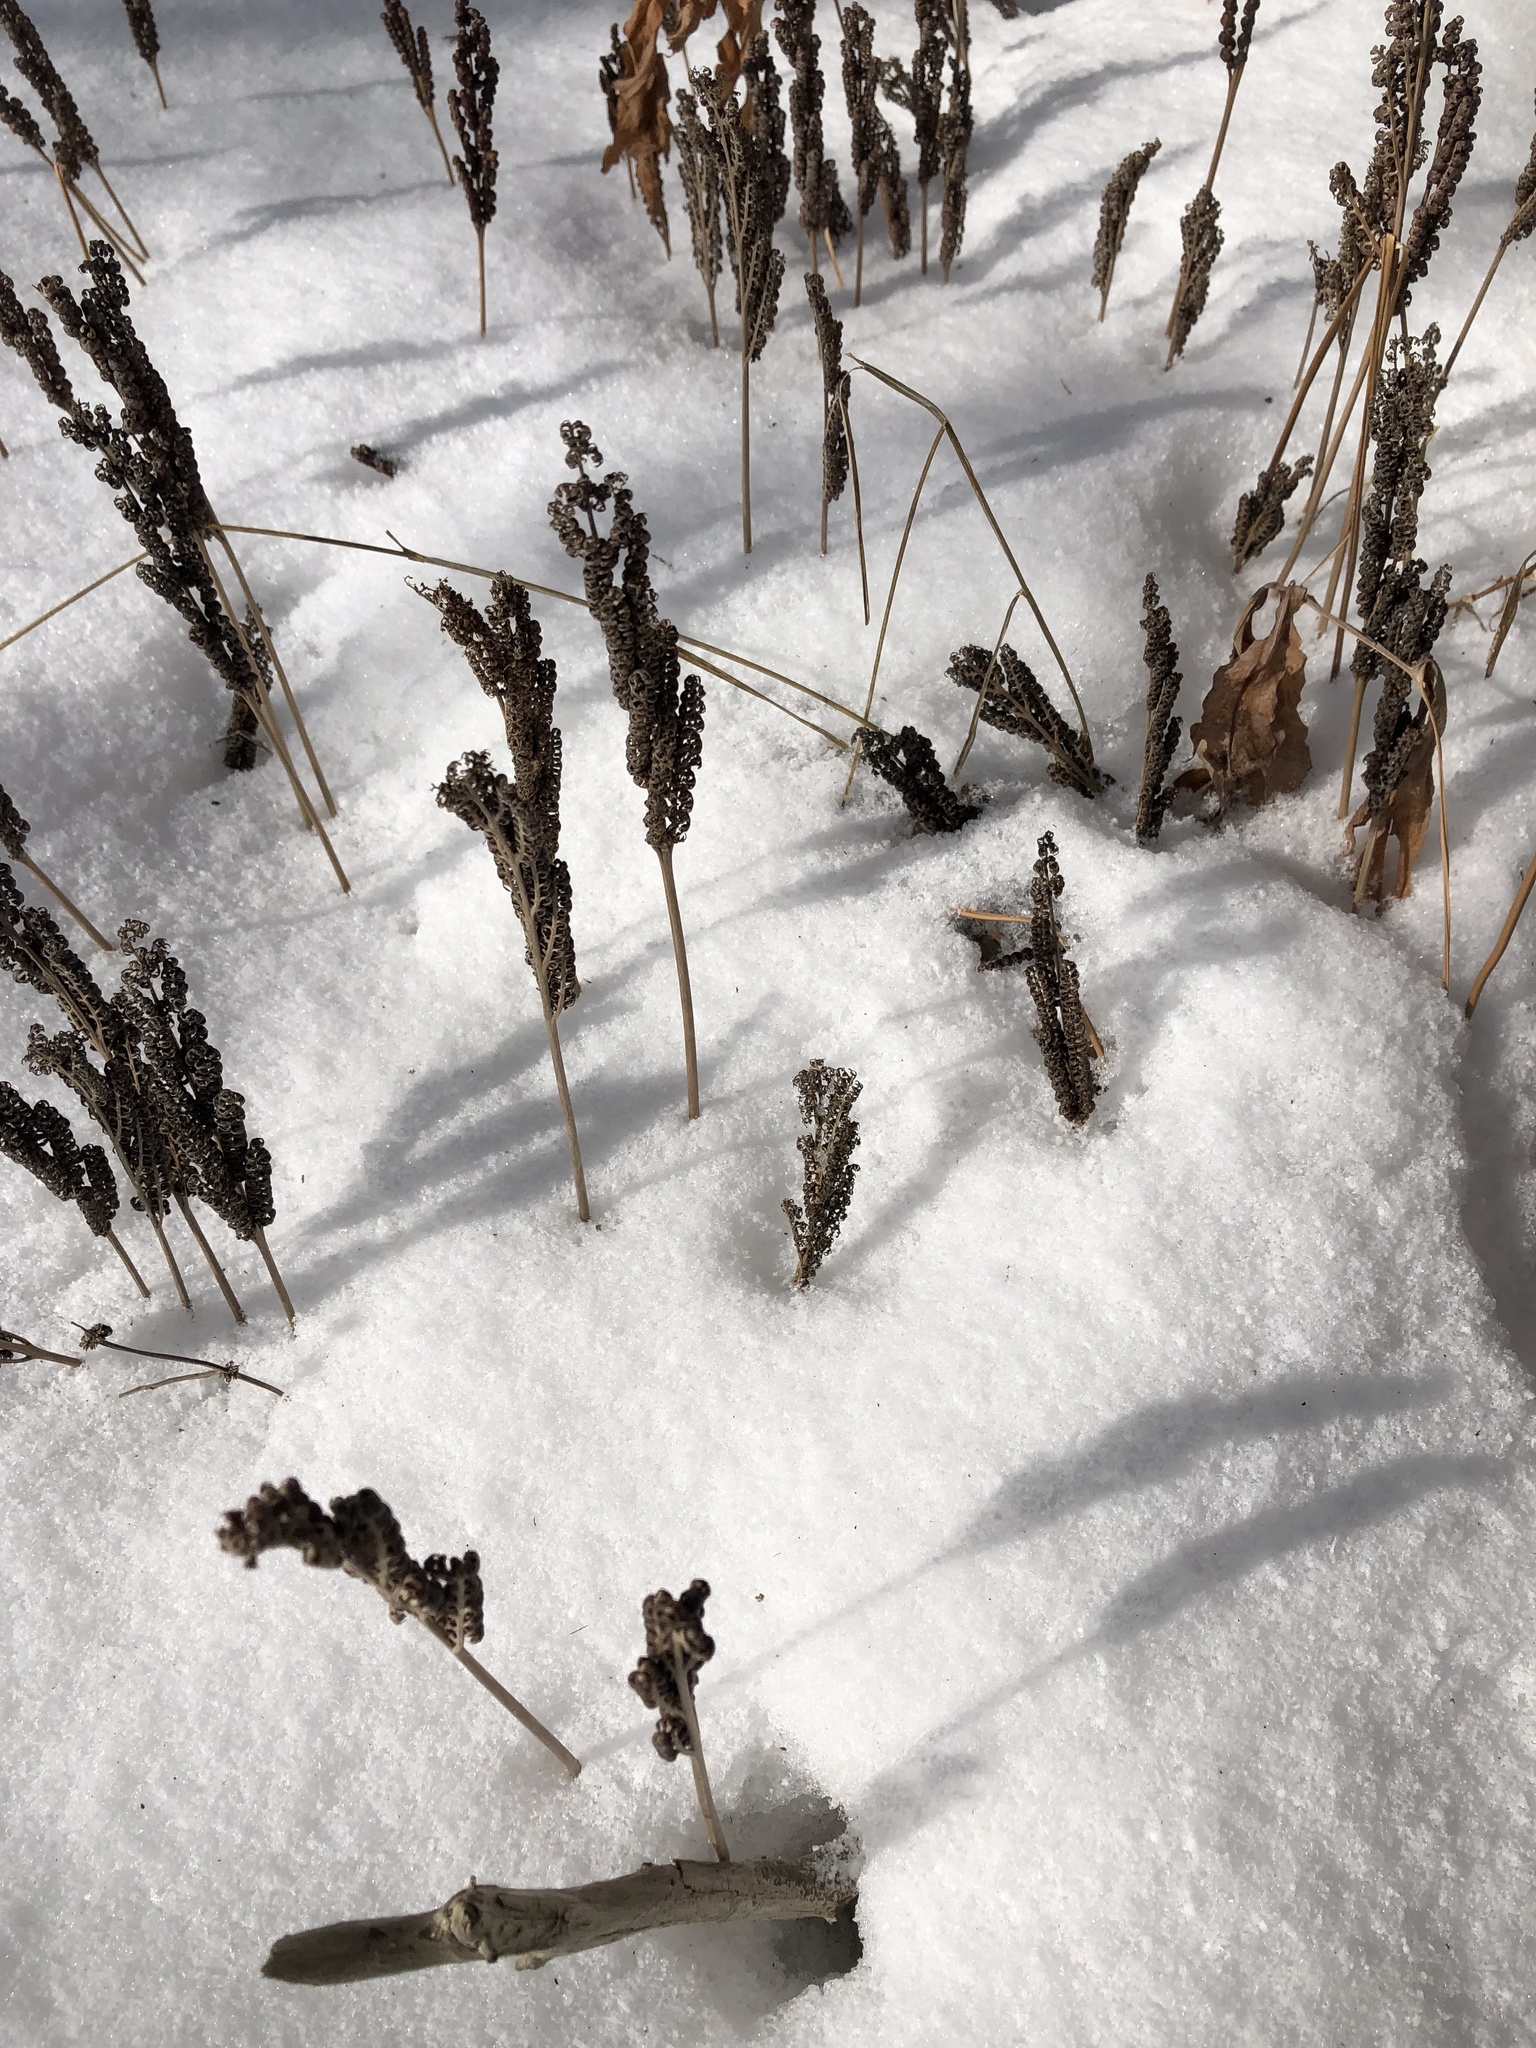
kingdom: Plantae
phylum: Tracheophyta
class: Polypodiopsida
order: Polypodiales
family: Onocleaceae
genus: Onoclea
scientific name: Onoclea sensibilis
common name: Sensitive fern
